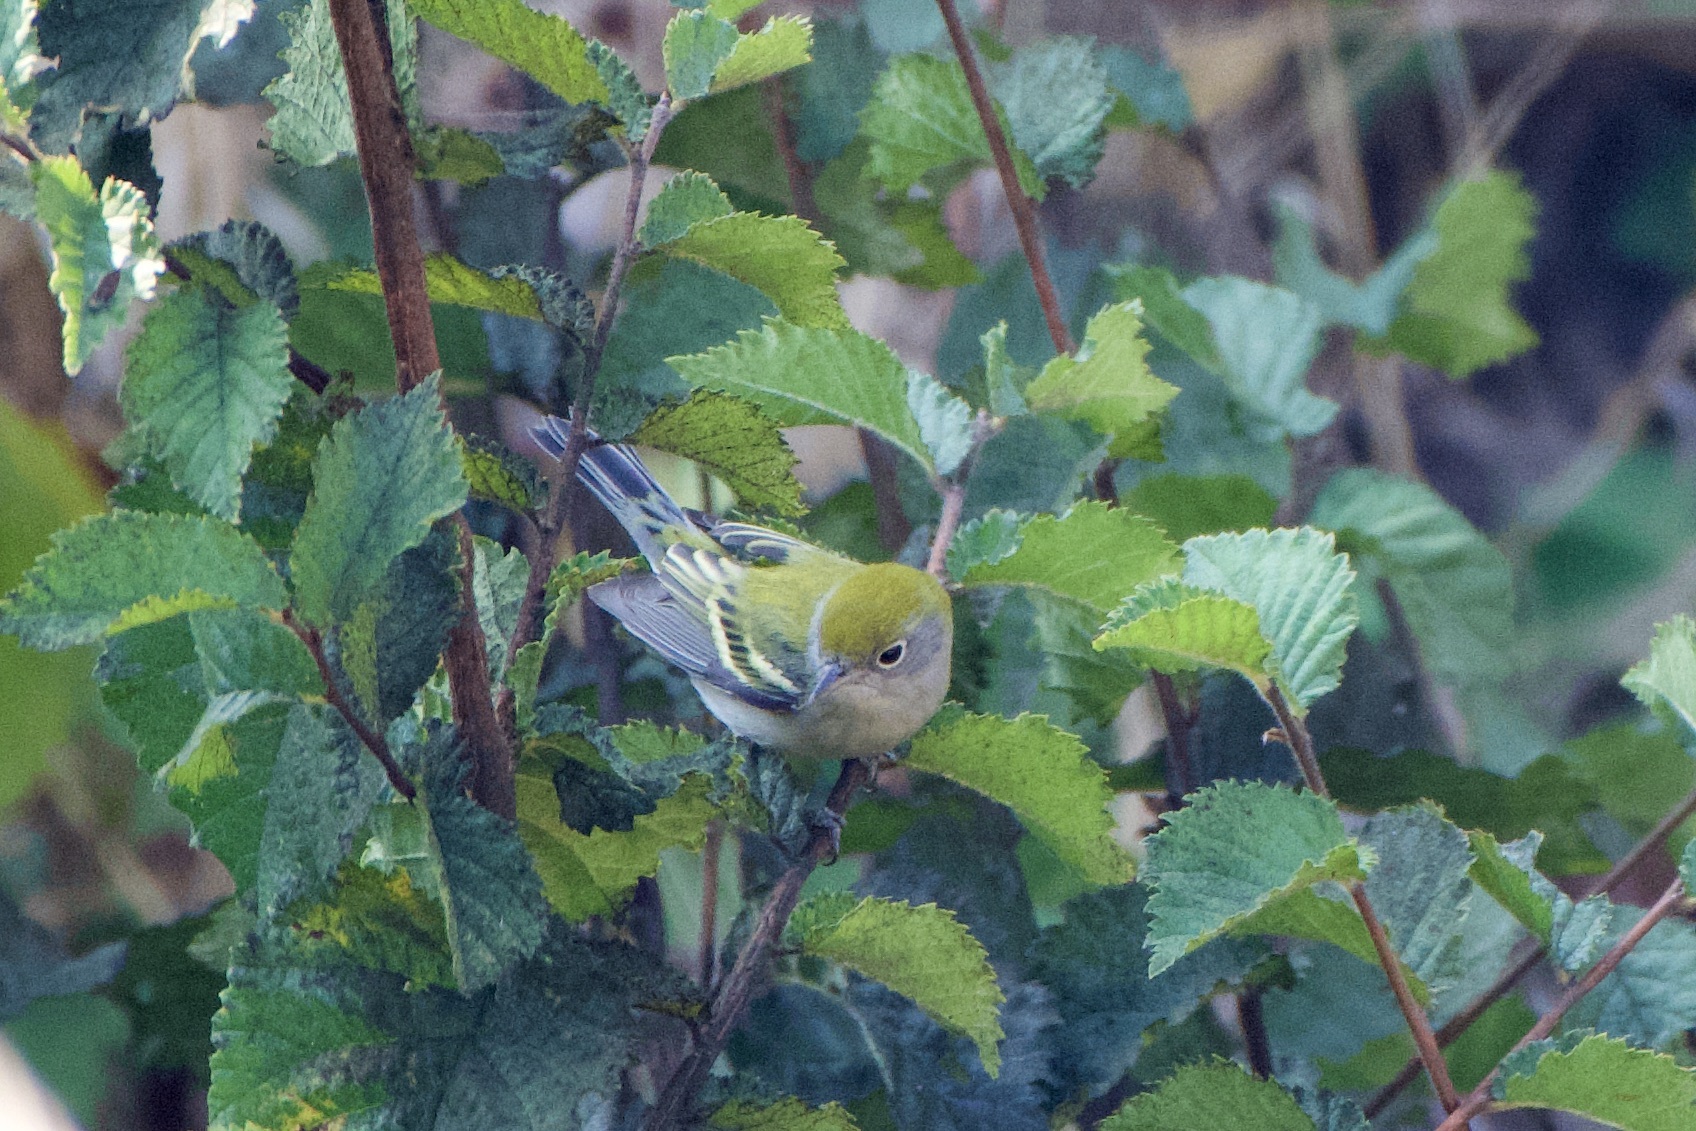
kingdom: Animalia
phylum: Chordata
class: Aves
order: Passeriformes
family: Parulidae
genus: Setophaga
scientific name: Setophaga pensylvanica
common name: Chestnut-sided warbler
